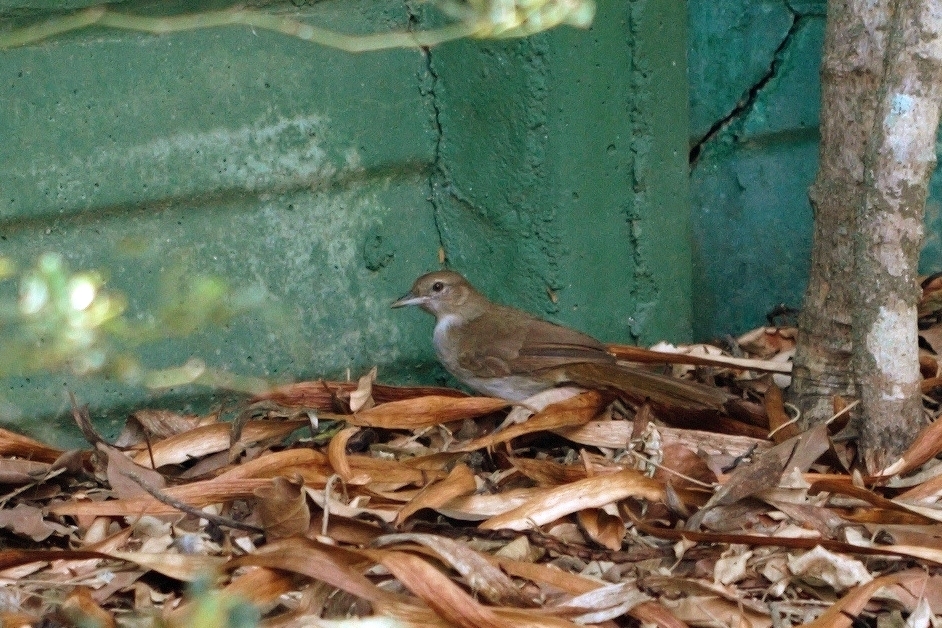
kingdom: Animalia
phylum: Chordata
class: Aves
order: Passeriformes
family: Pycnonotidae
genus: Phyllastrephus
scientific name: Phyllastrephus terrestris
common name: Terrestrial brownbul
